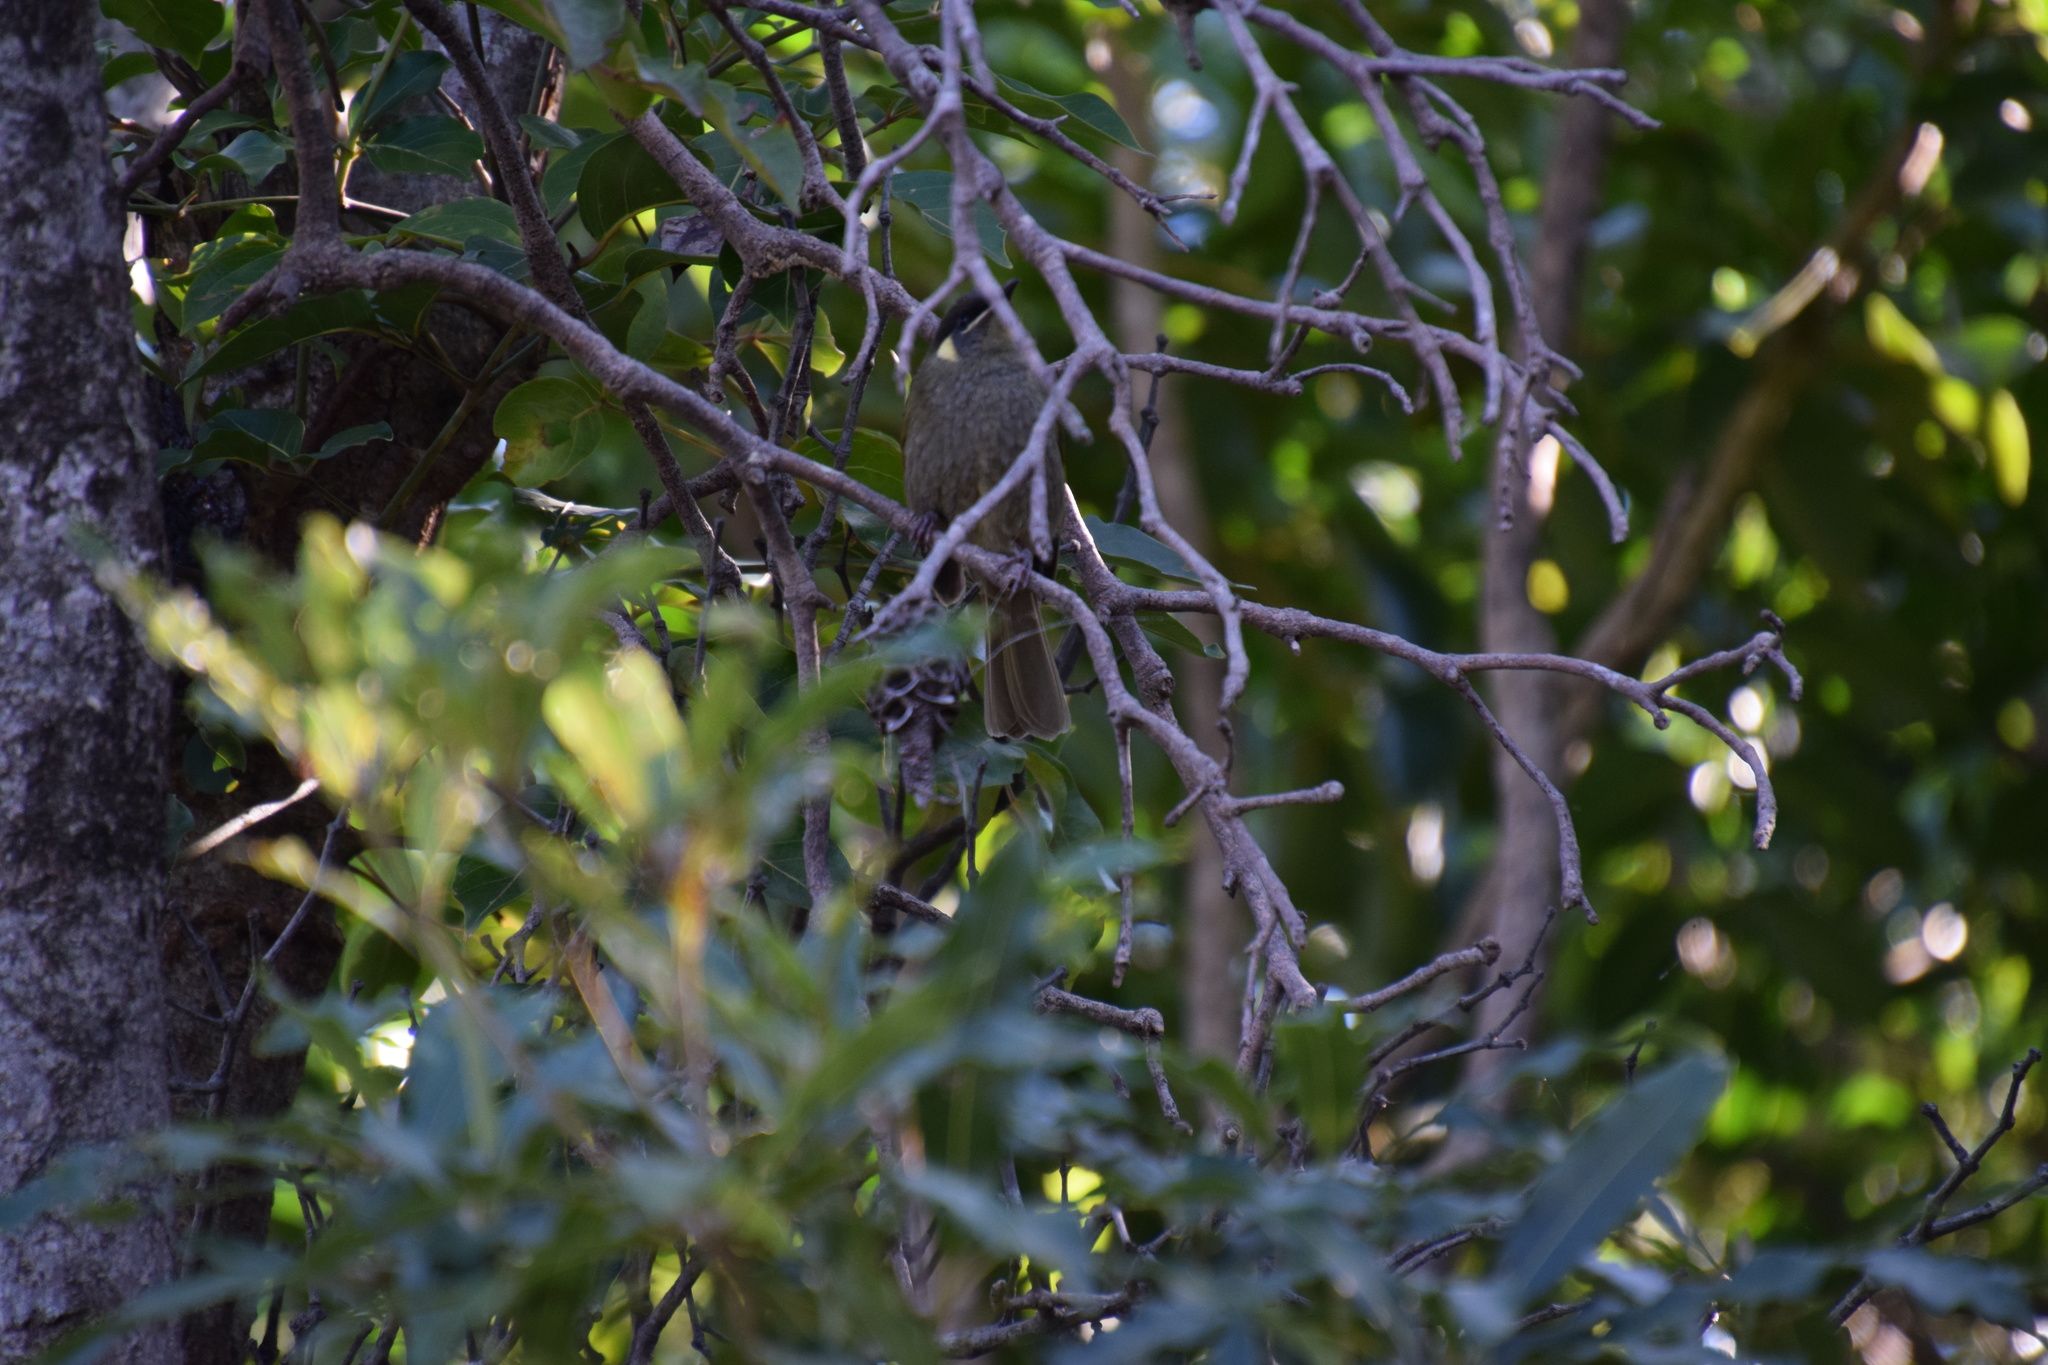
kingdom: Animalia
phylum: Chordata
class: Aves
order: Passeriformes
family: Meliphagidae
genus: Meliphaga
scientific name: Meliphaga lewinii
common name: Lewin's honeyeater
